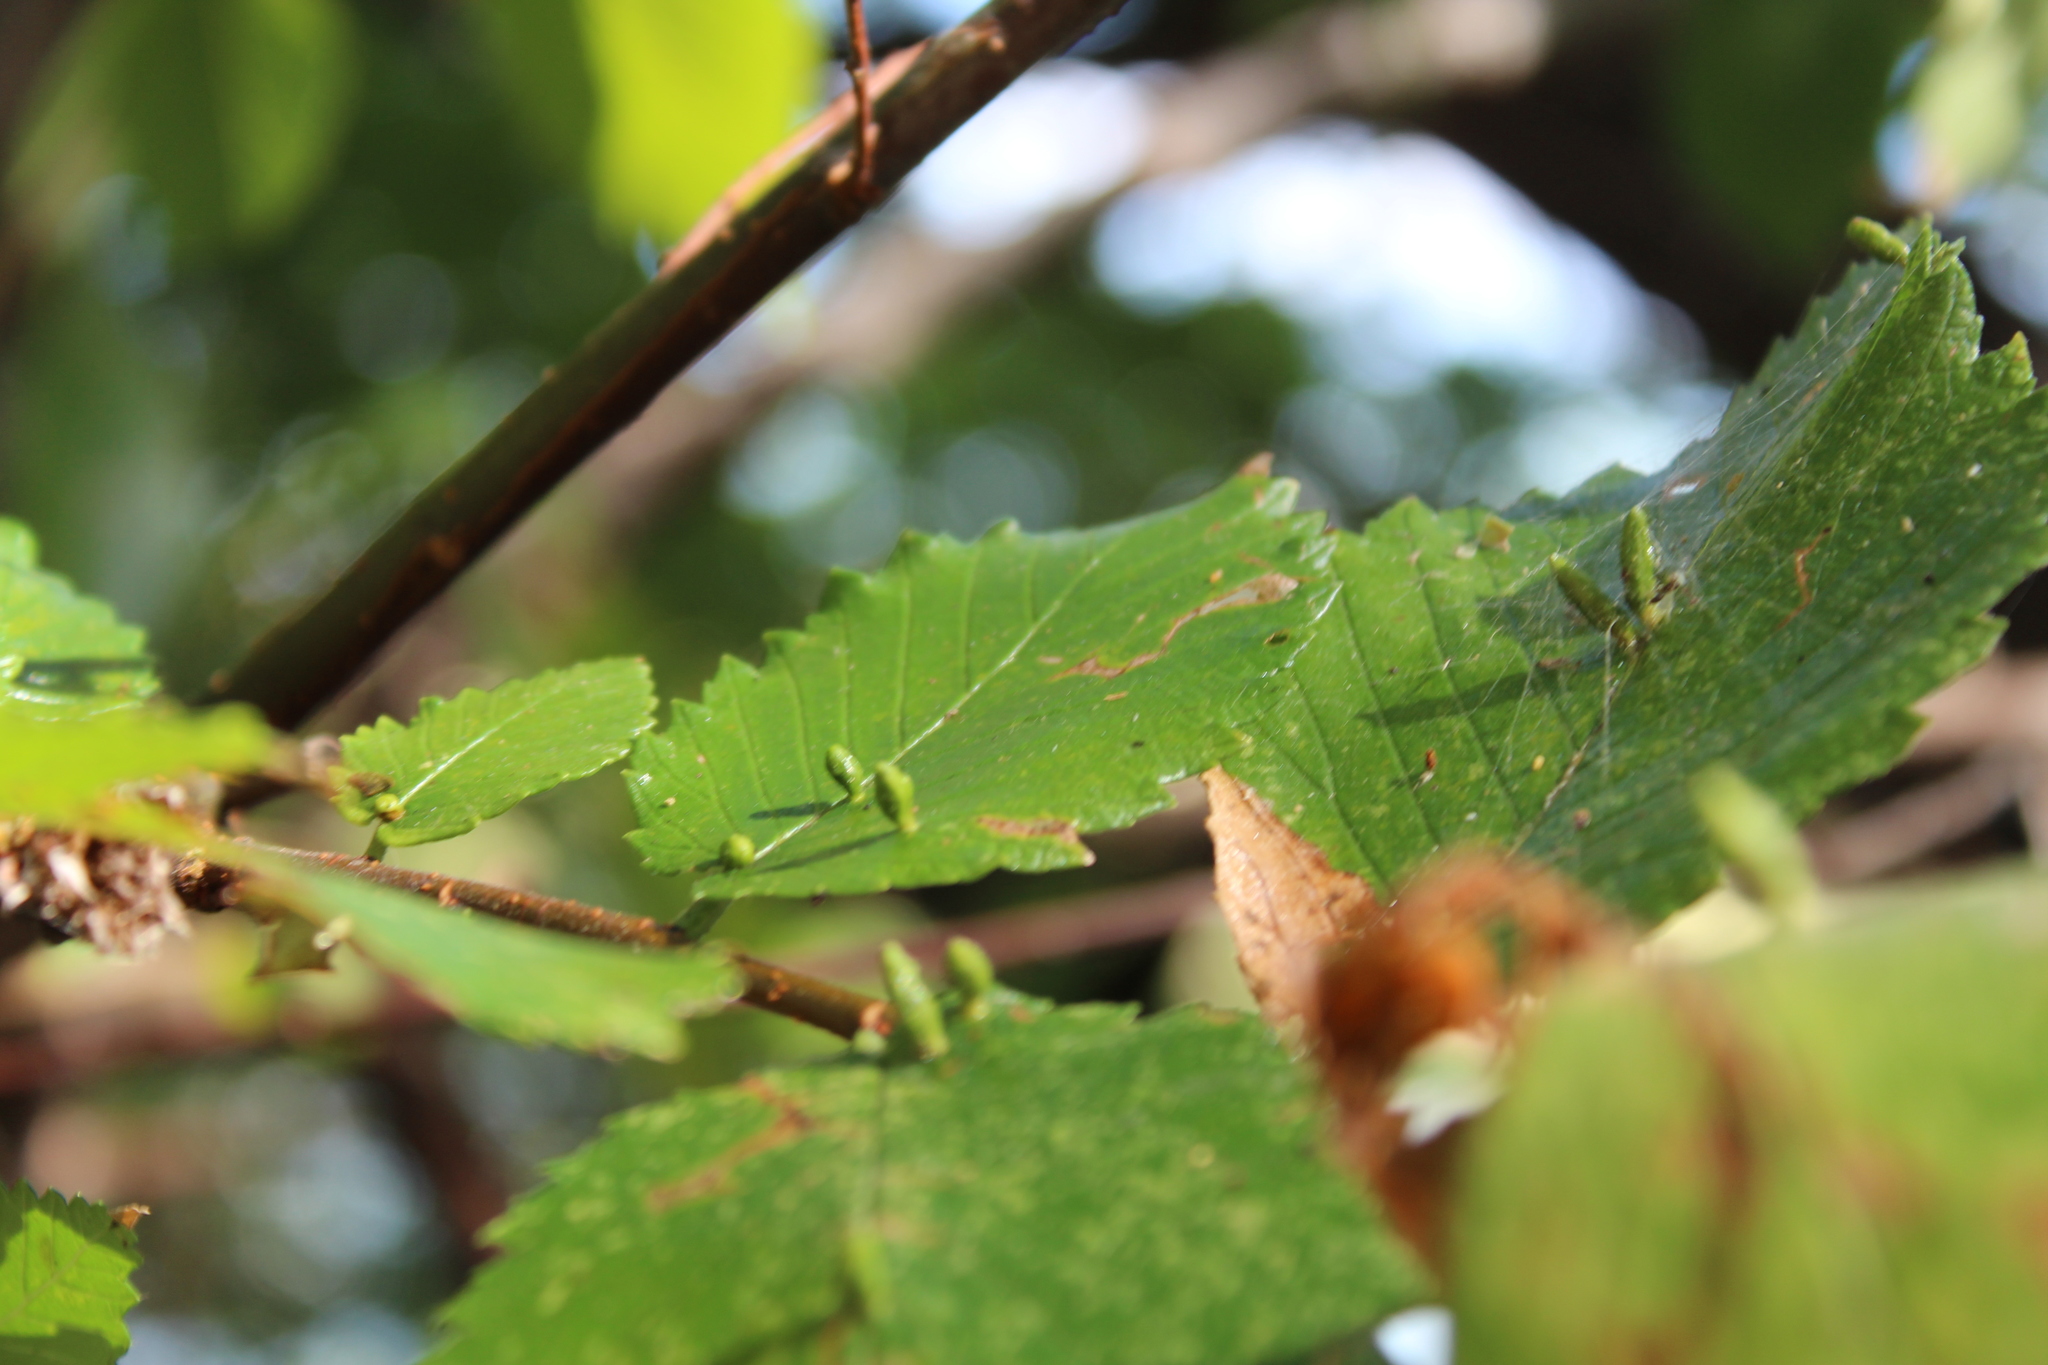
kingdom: Animalia
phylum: Arthropoda
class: Arachnida
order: Trombidiformes
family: Eriophyidae
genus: Aceria
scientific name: Aceria
